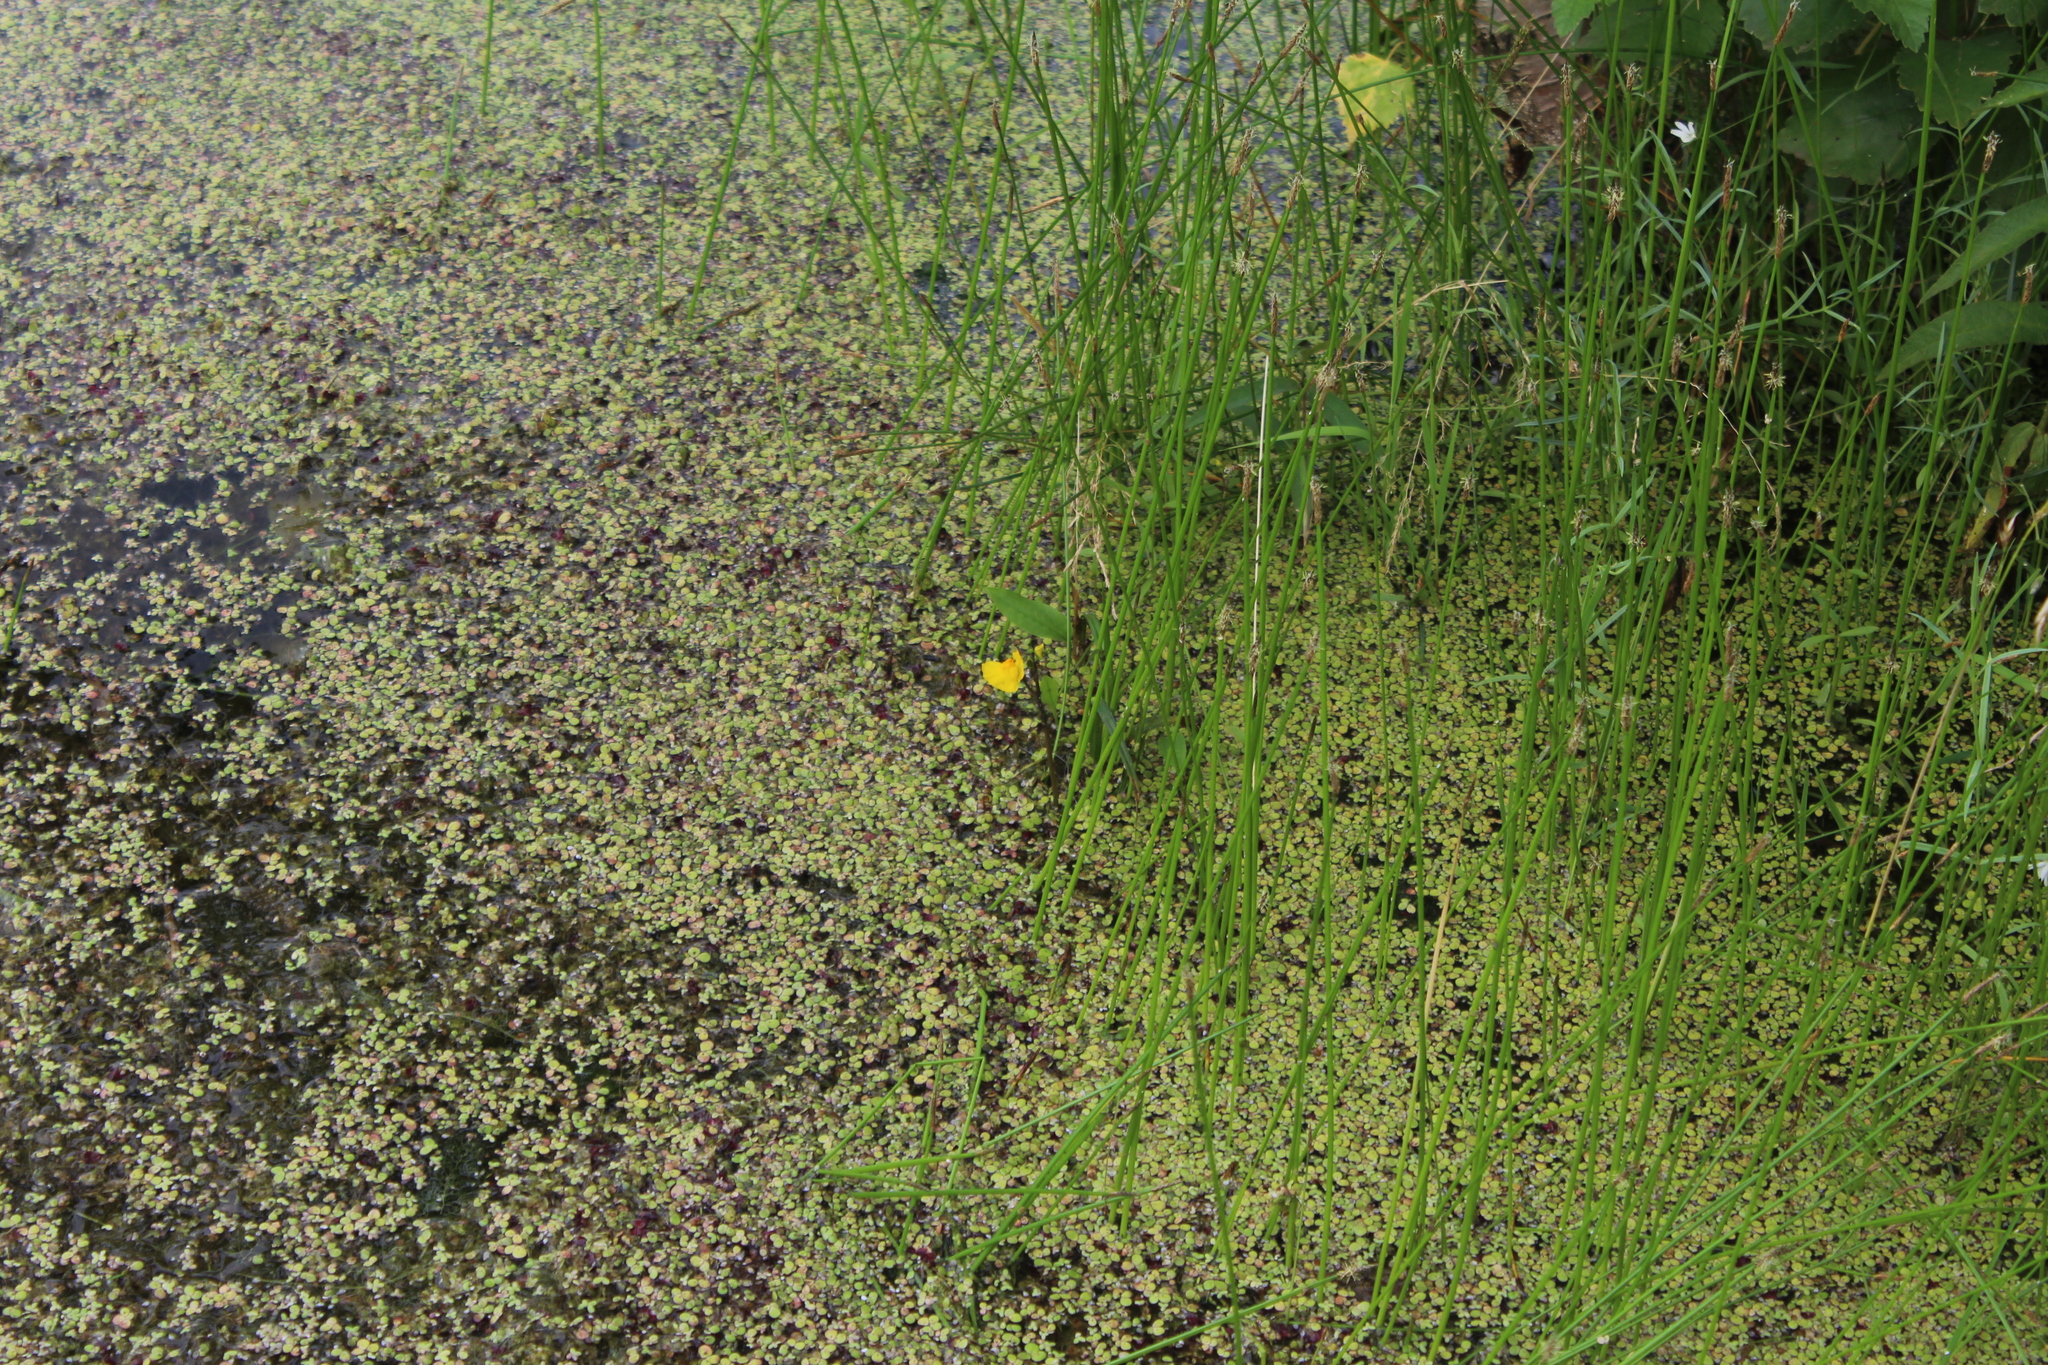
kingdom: Plantae
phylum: Tracheophyta
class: Magnoliopsida
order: Lamiales
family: Lentibulariaceae
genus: Utricularia
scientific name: Utricularia australis
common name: Bladderwort
